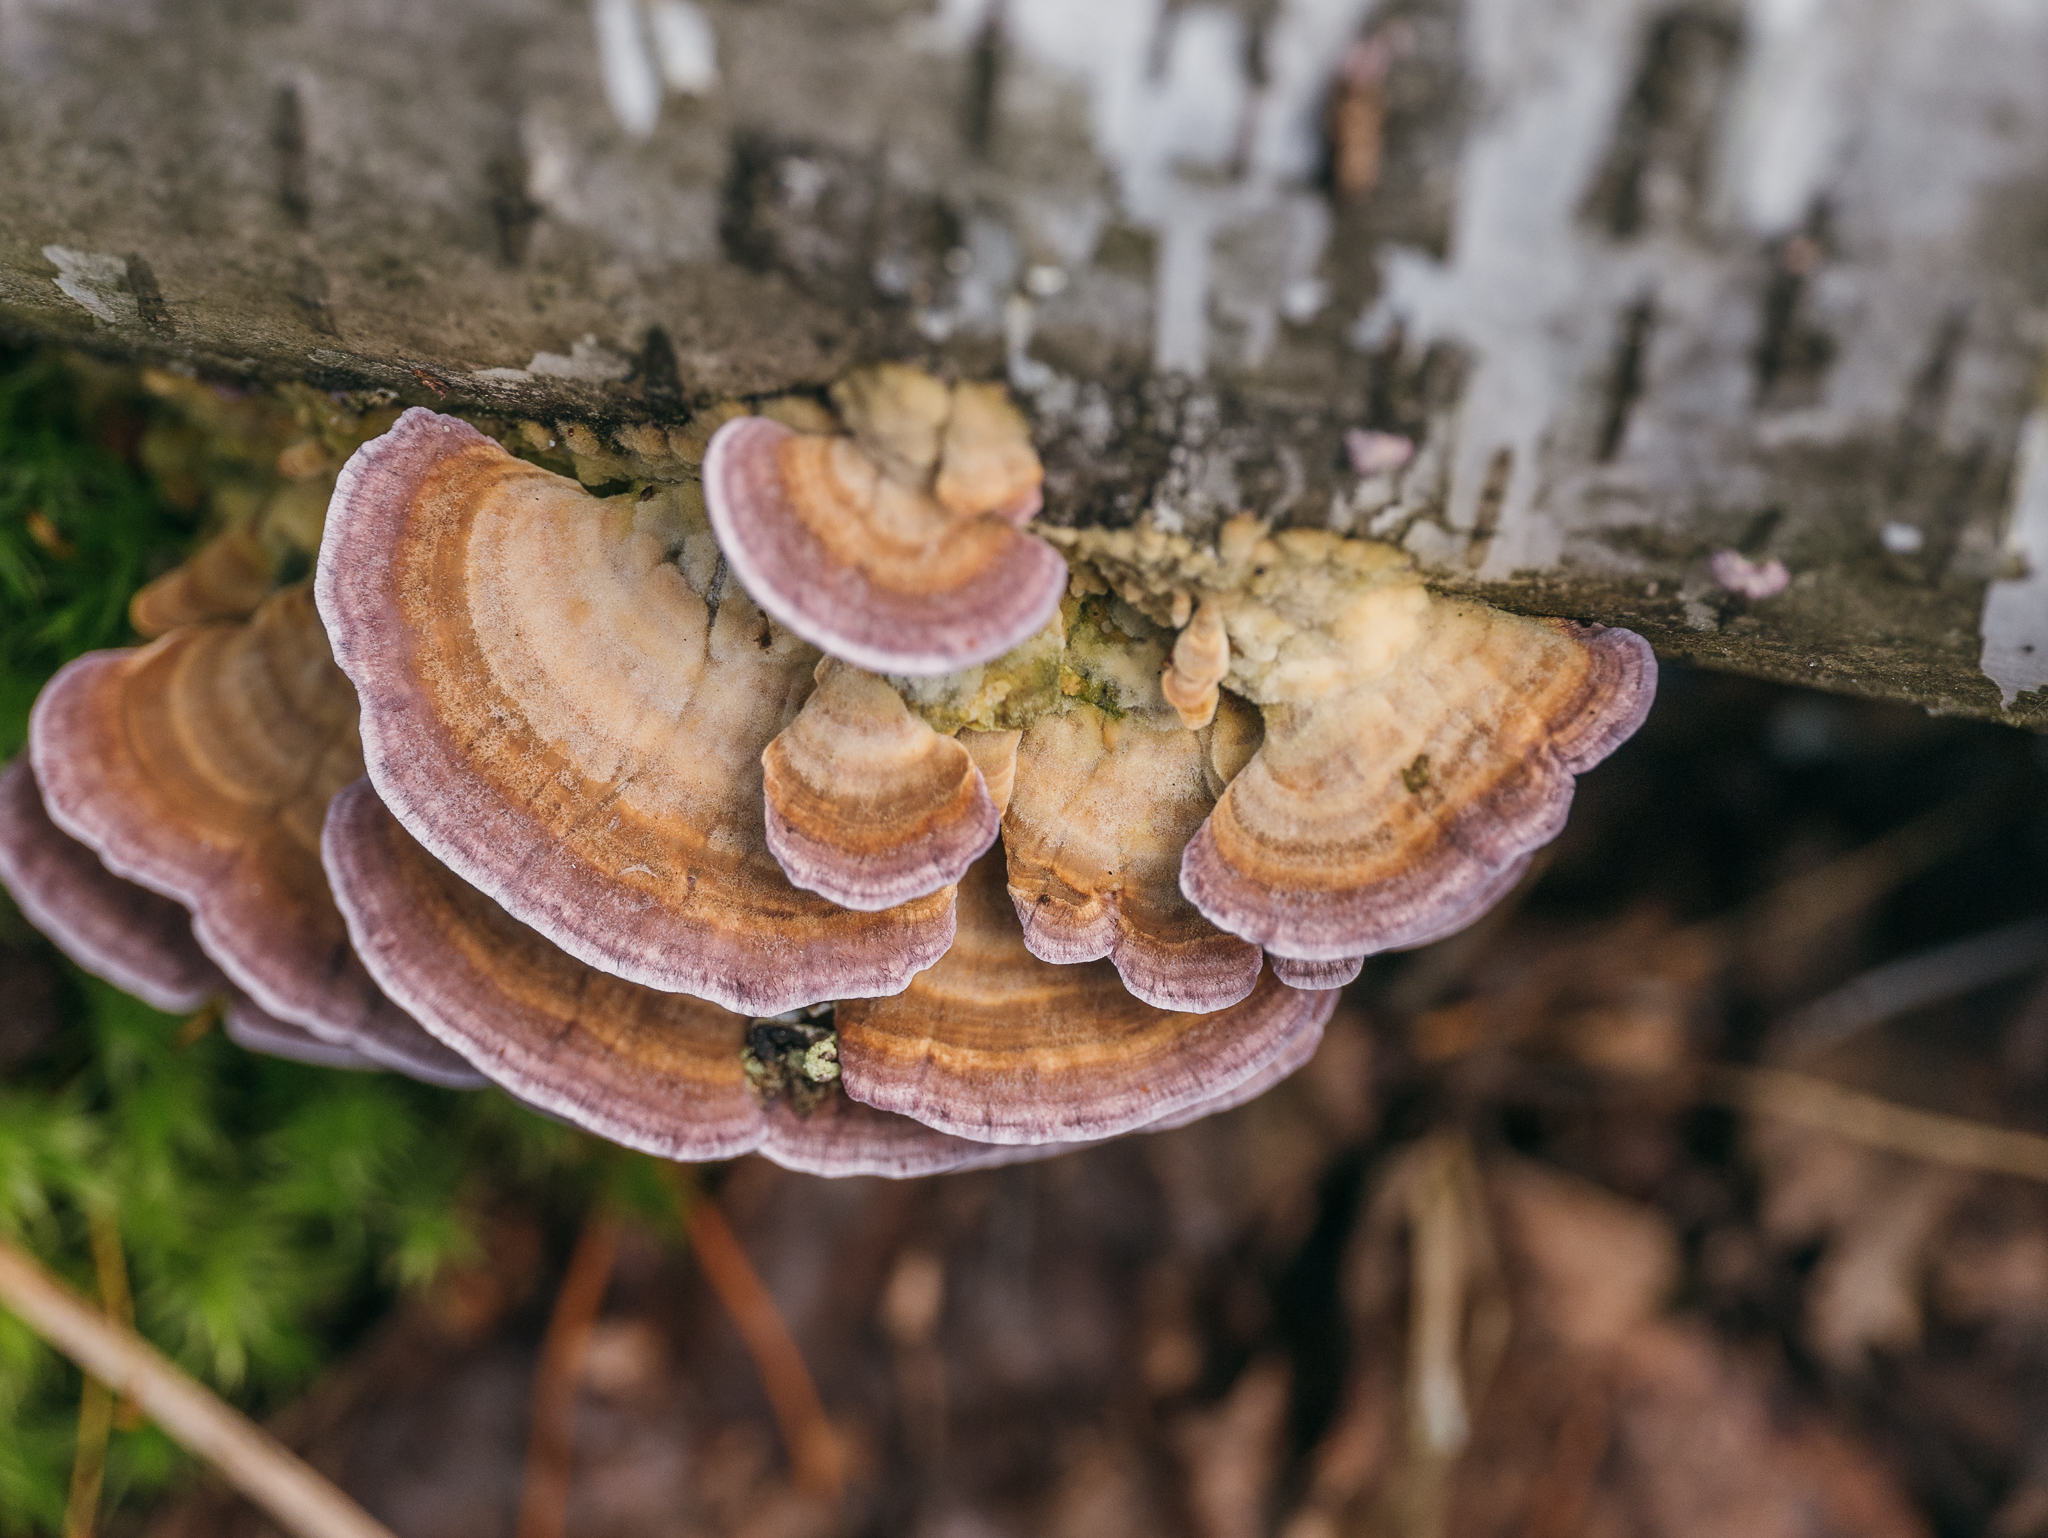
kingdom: Fungi
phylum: Basidiomycota
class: Agaricomycetes
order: Hymenochaetales
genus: Trichaptum
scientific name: Trichaptum biforme
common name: Violet-toothed polypore
